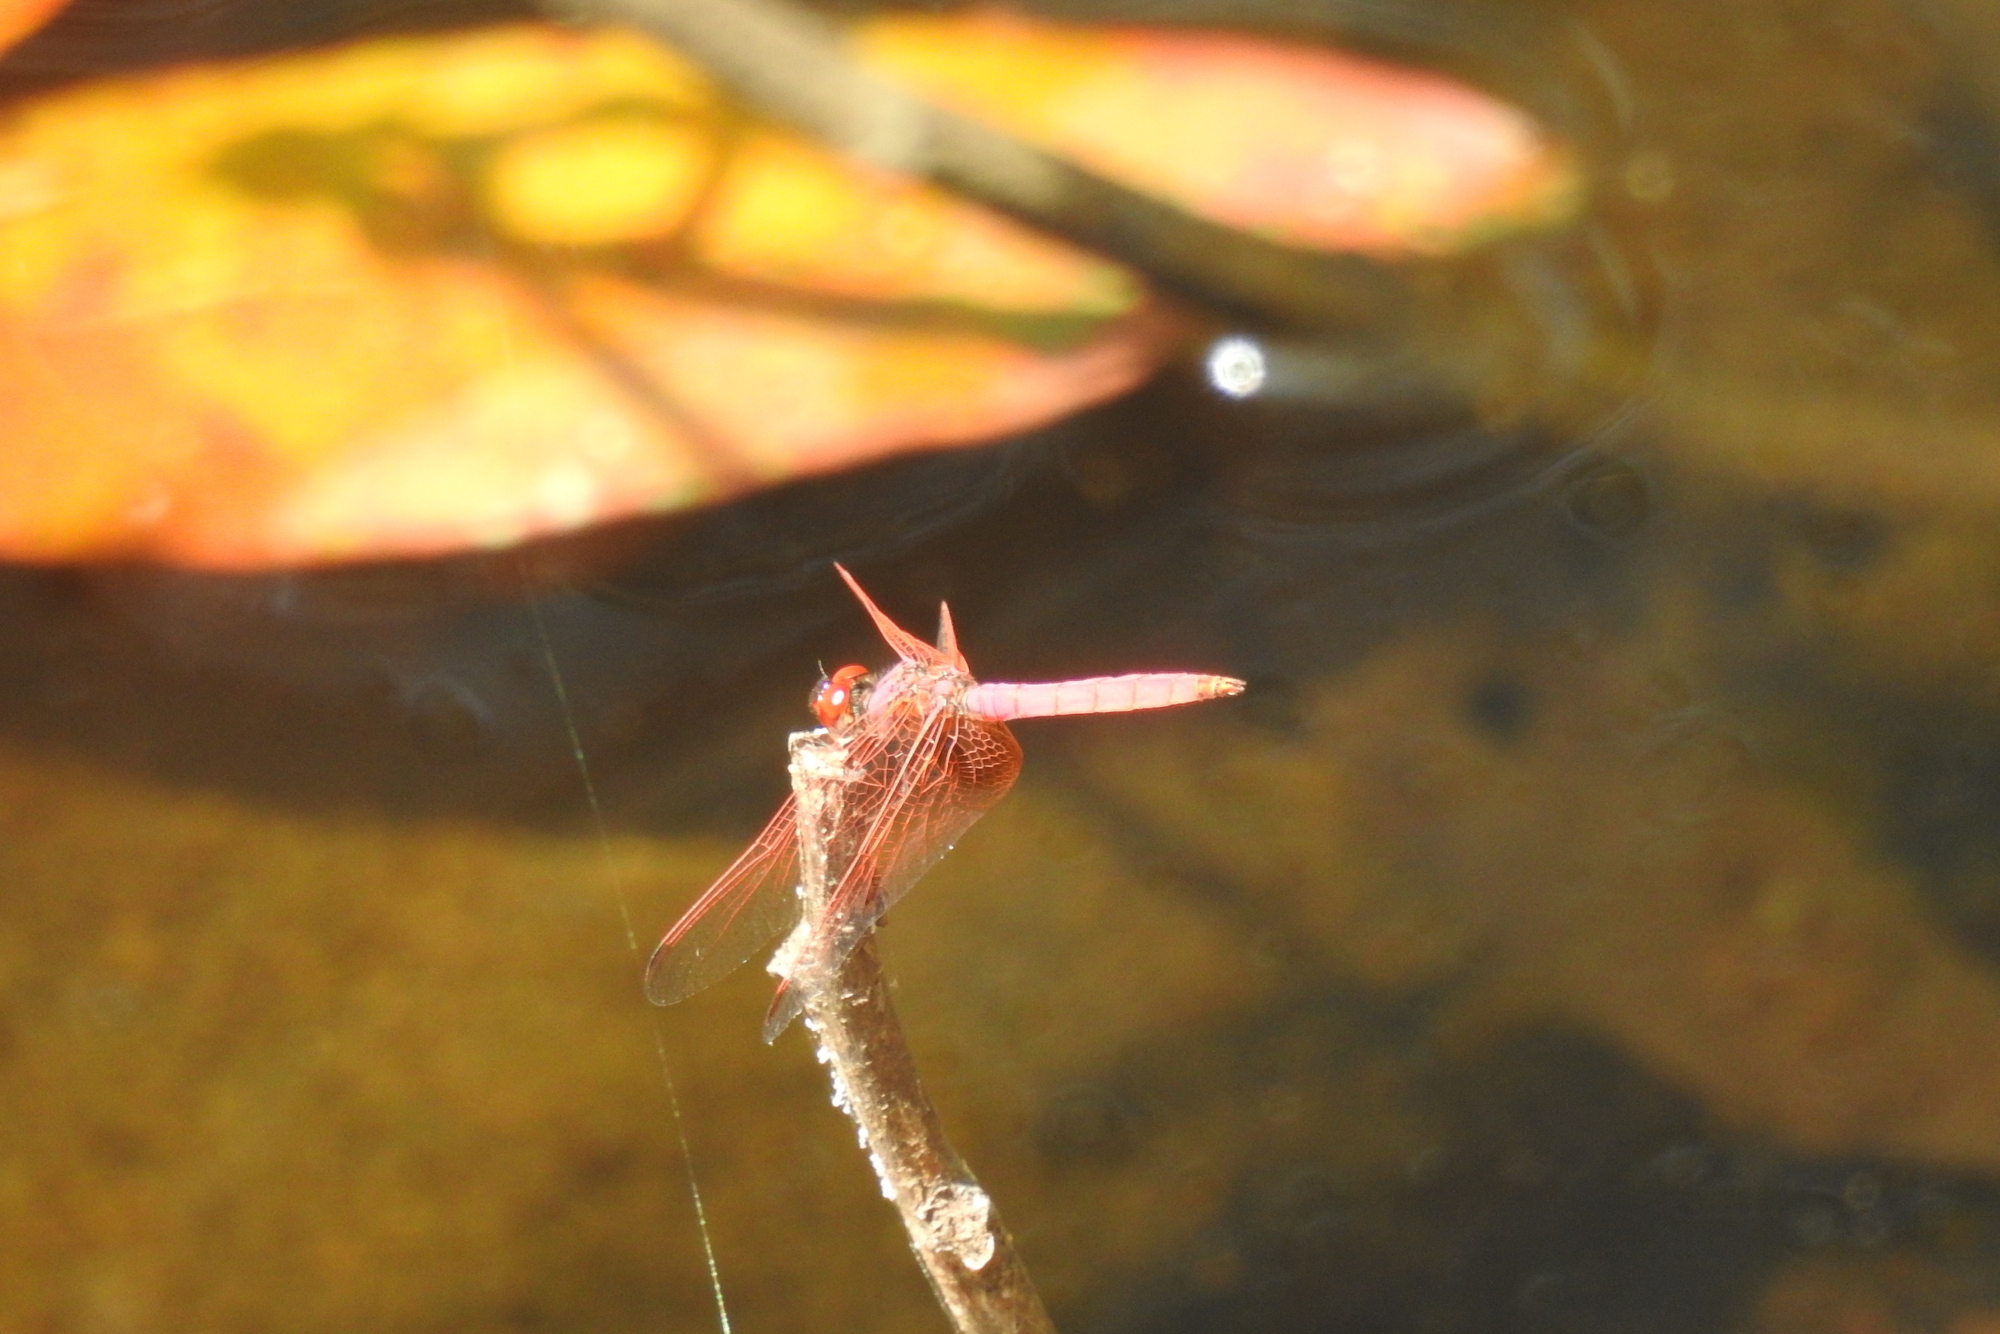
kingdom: Animalia
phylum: Arthropoda
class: Insecta
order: Odonata
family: Libellulidae
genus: Trithemis
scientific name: Trithemis aurora
